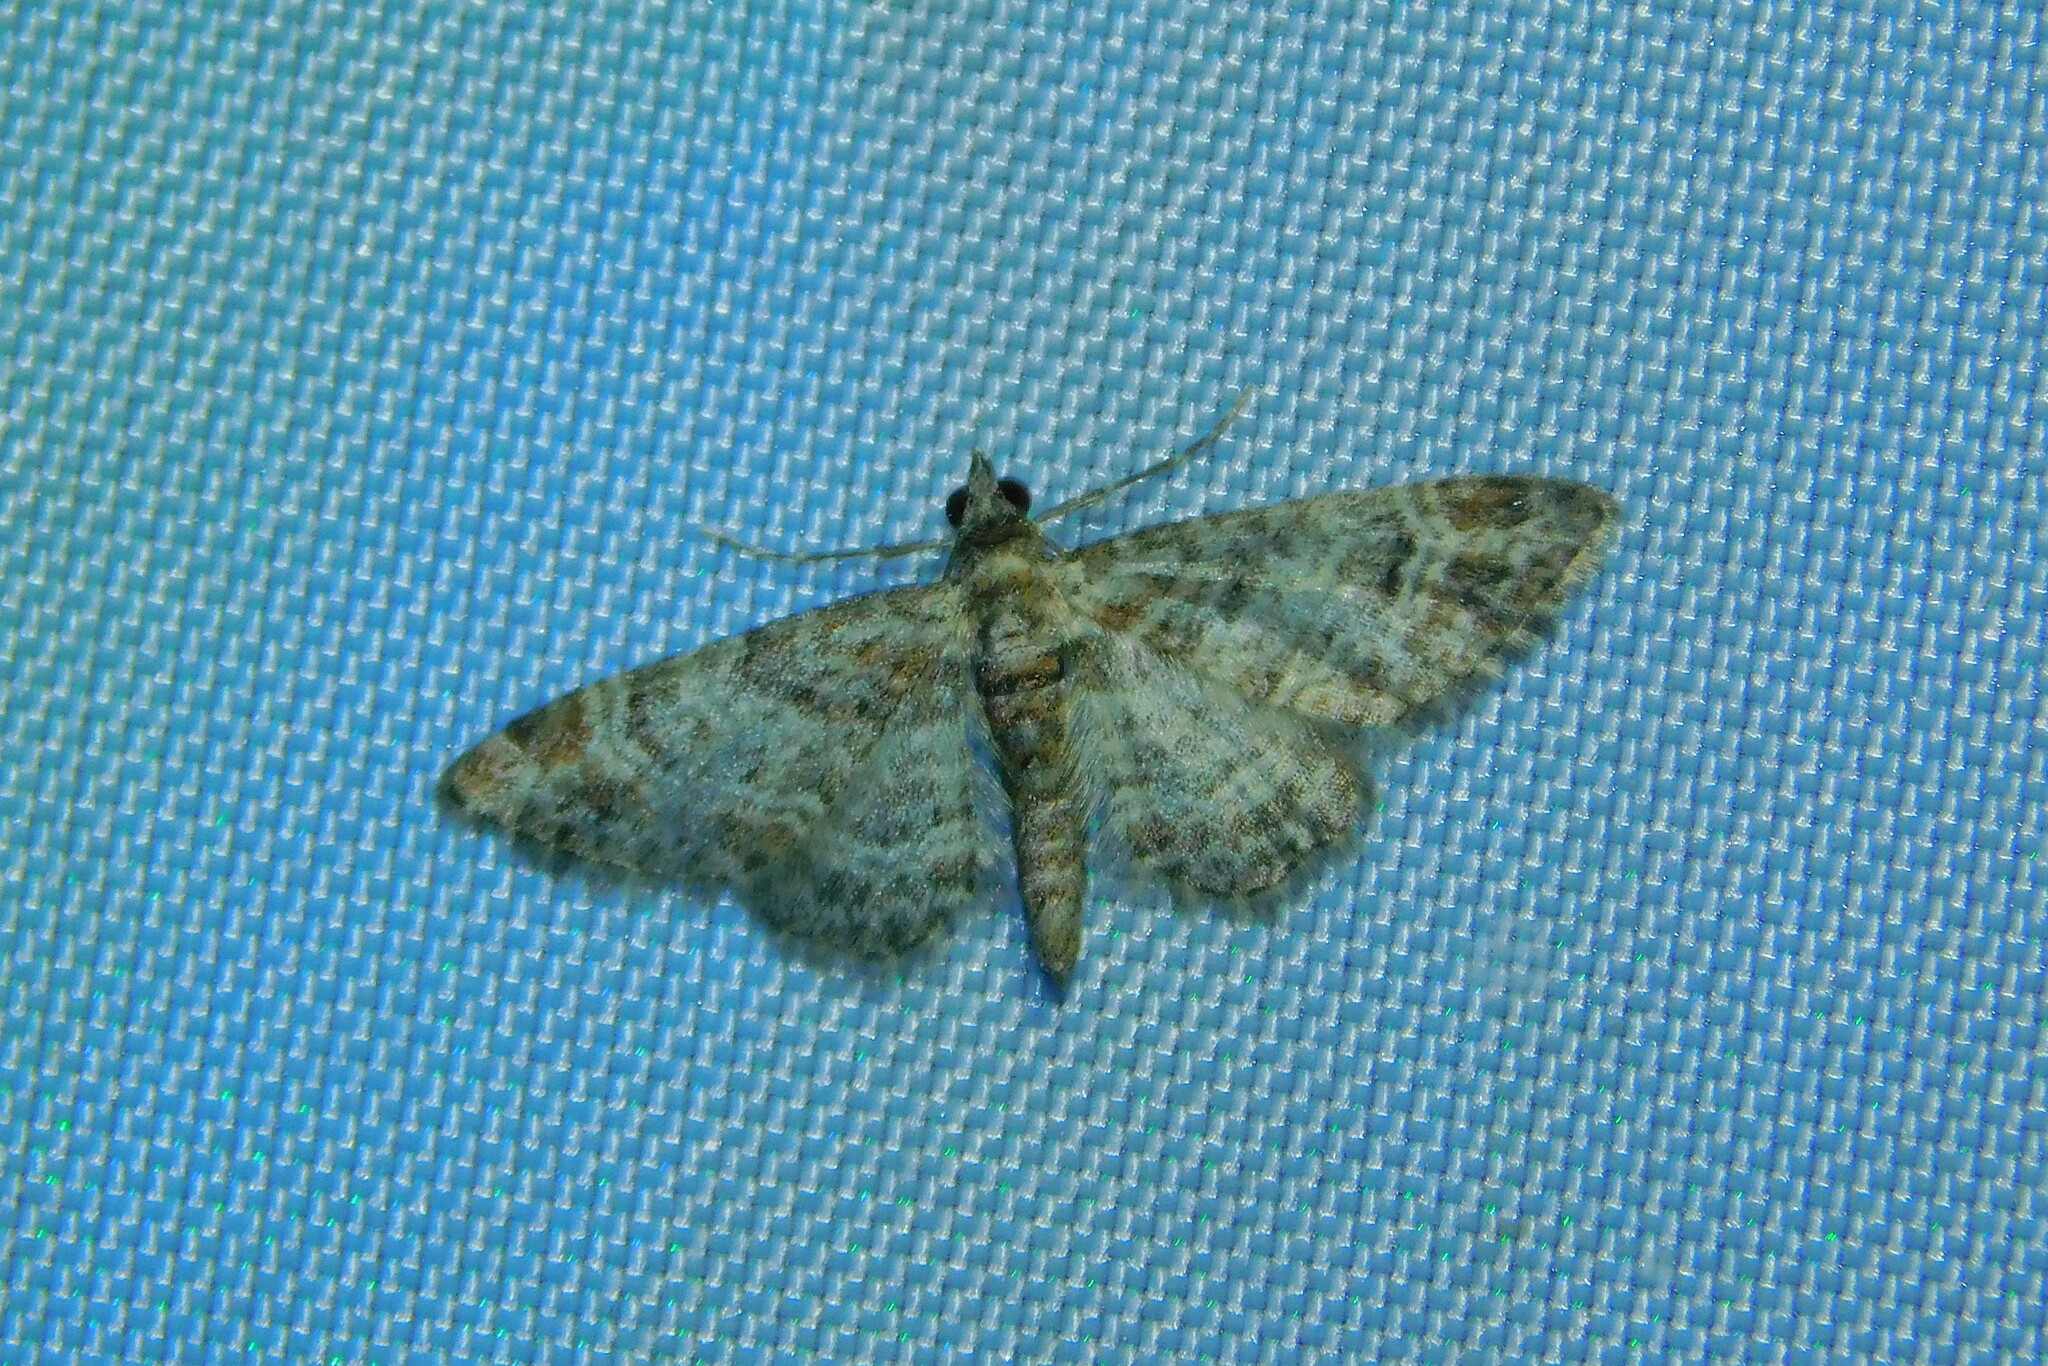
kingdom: Animalia
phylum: Arthropoda
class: Insecta
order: Lepidoptera
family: Geometridae
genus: Gymnoscelis
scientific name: Gymnoscelis rufifasciata
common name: Double-striped pug
